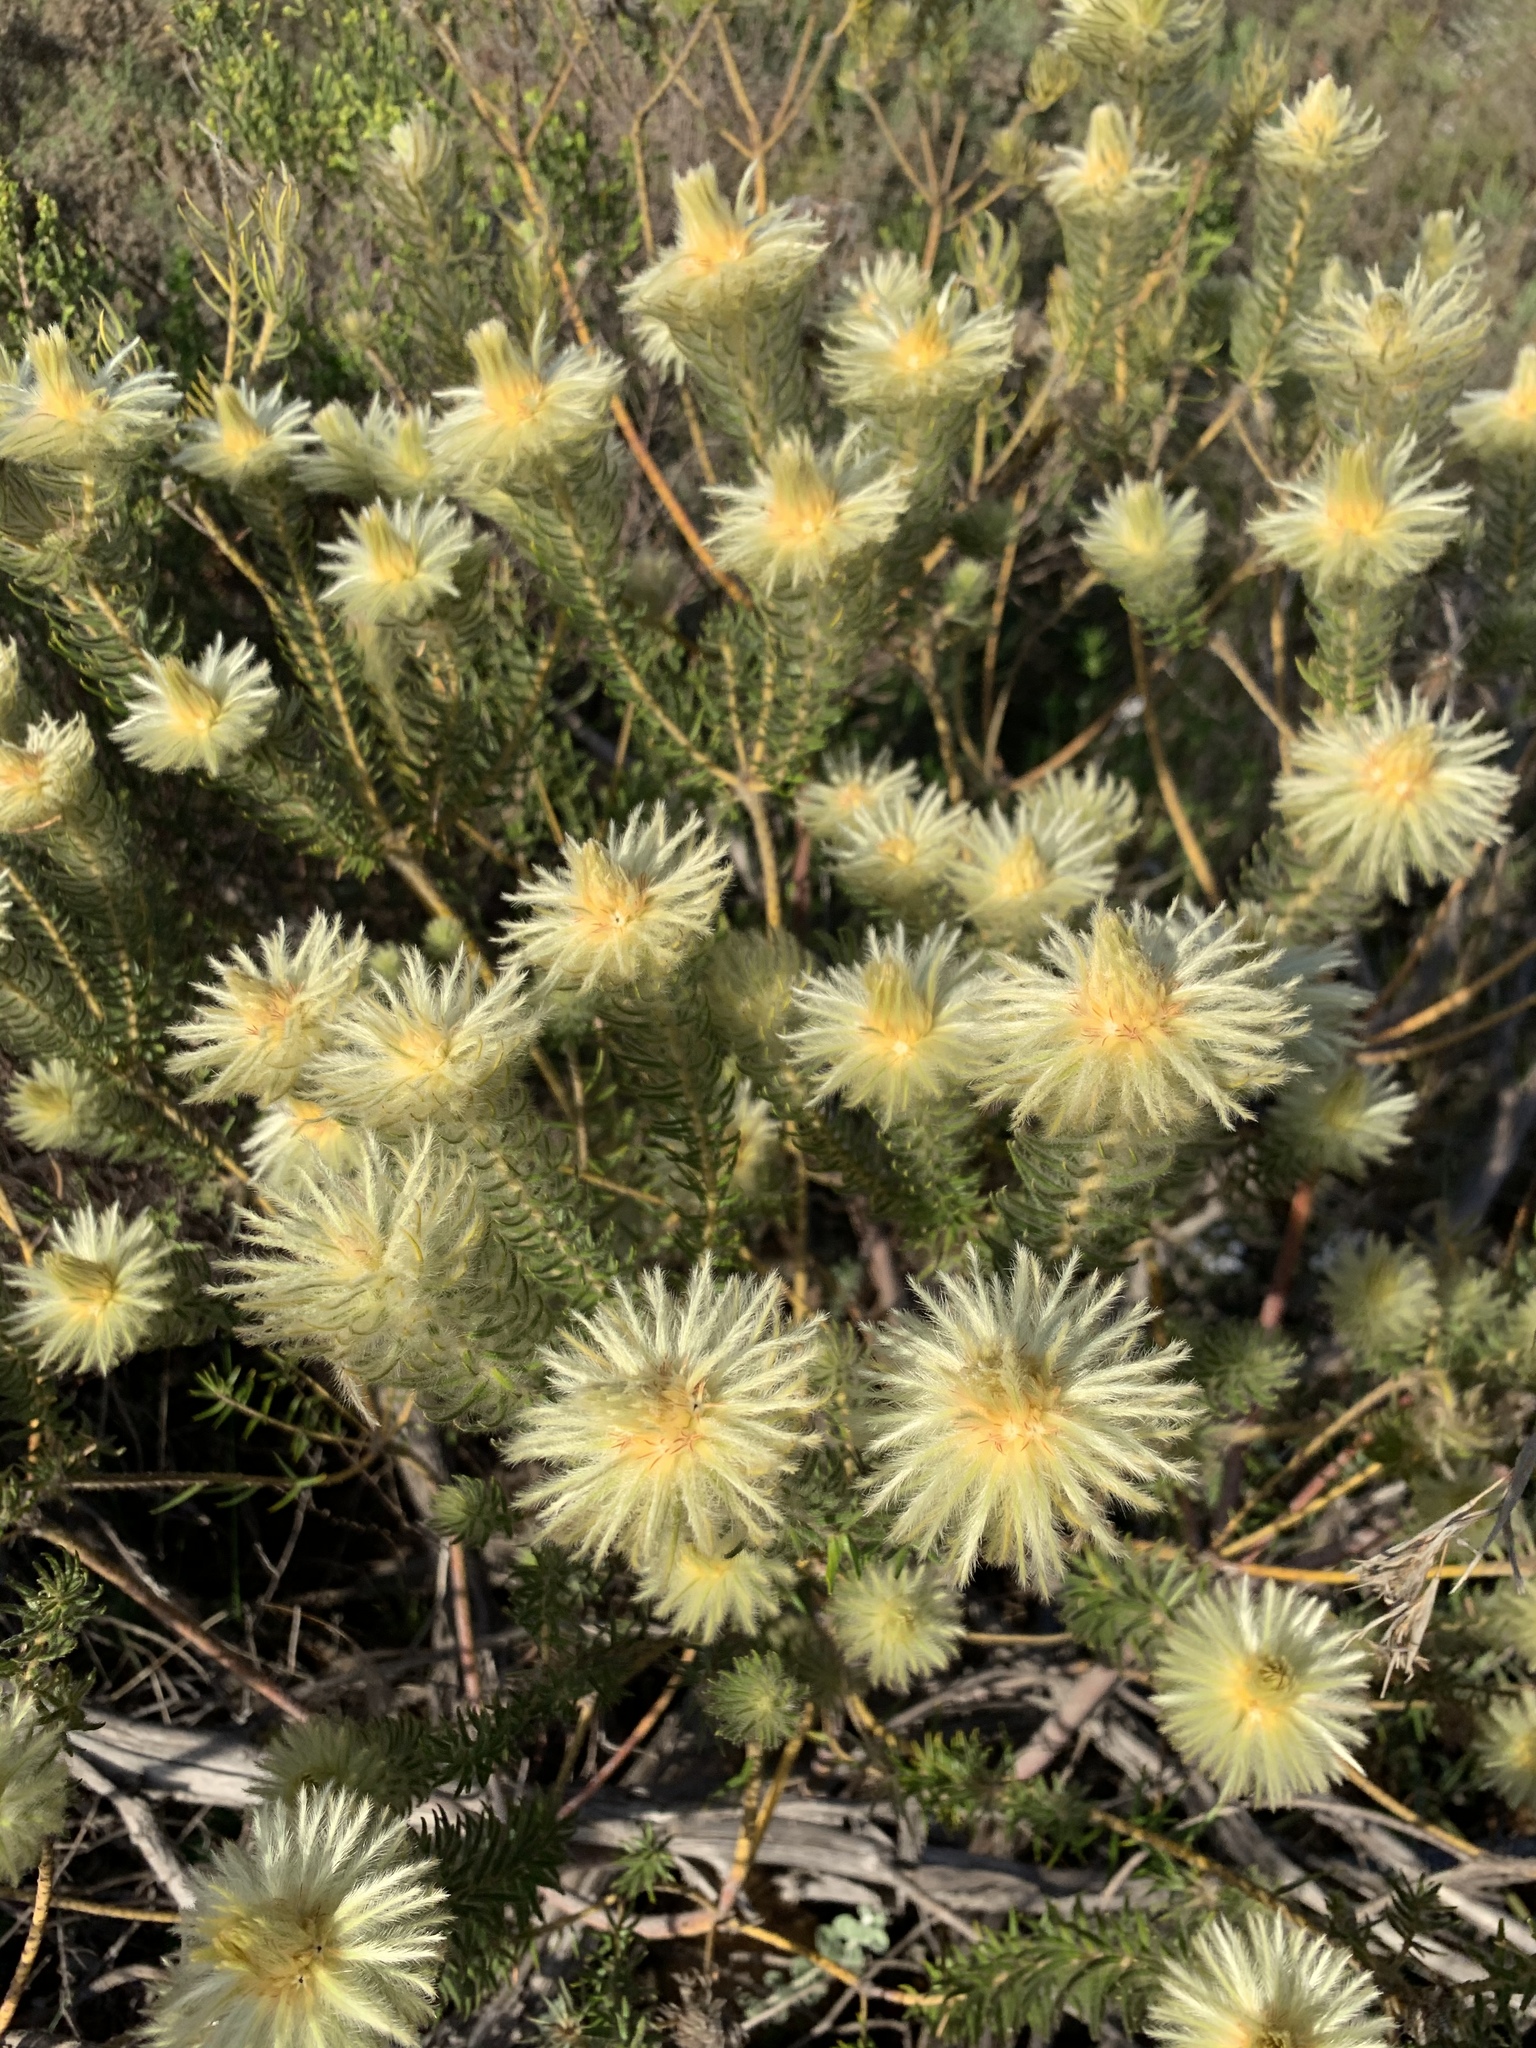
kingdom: Plantae
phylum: Tracheophyta
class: Magnoliopsida
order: Rosales
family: Rhamnaceae
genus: Phylica
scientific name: Phylica pubescens
